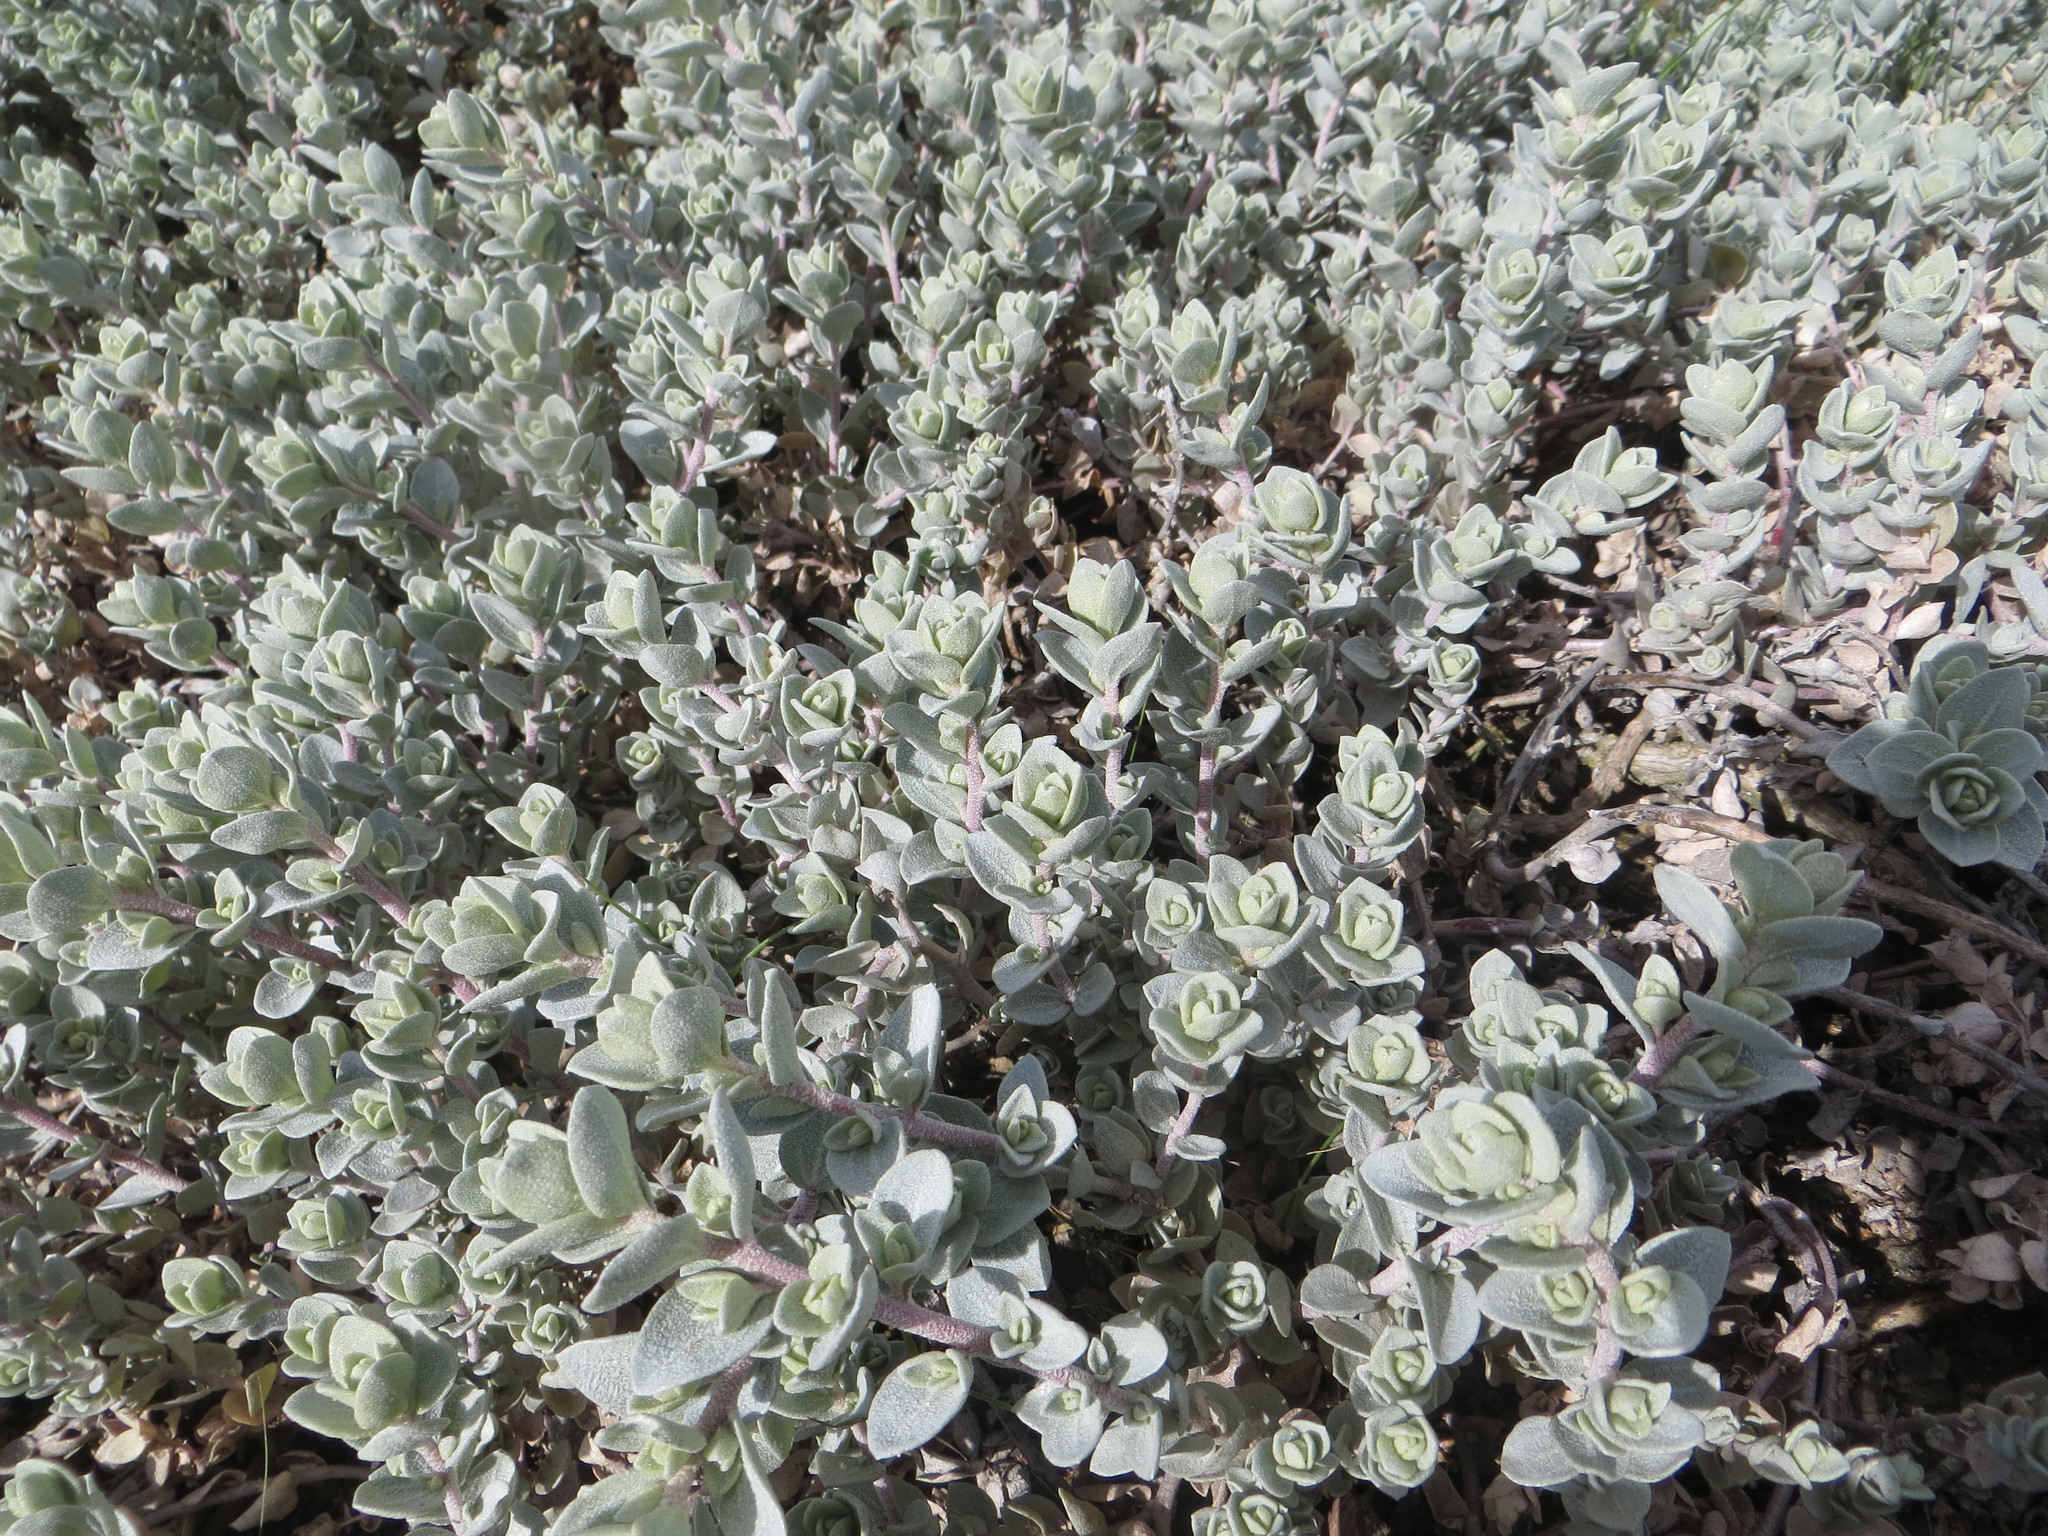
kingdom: Plantae
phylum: Tracheophyta
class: Magnoliopsida
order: Caryophyllales
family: Amaranthaceae
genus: Atriplex
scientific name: Atriplex leucophylla
